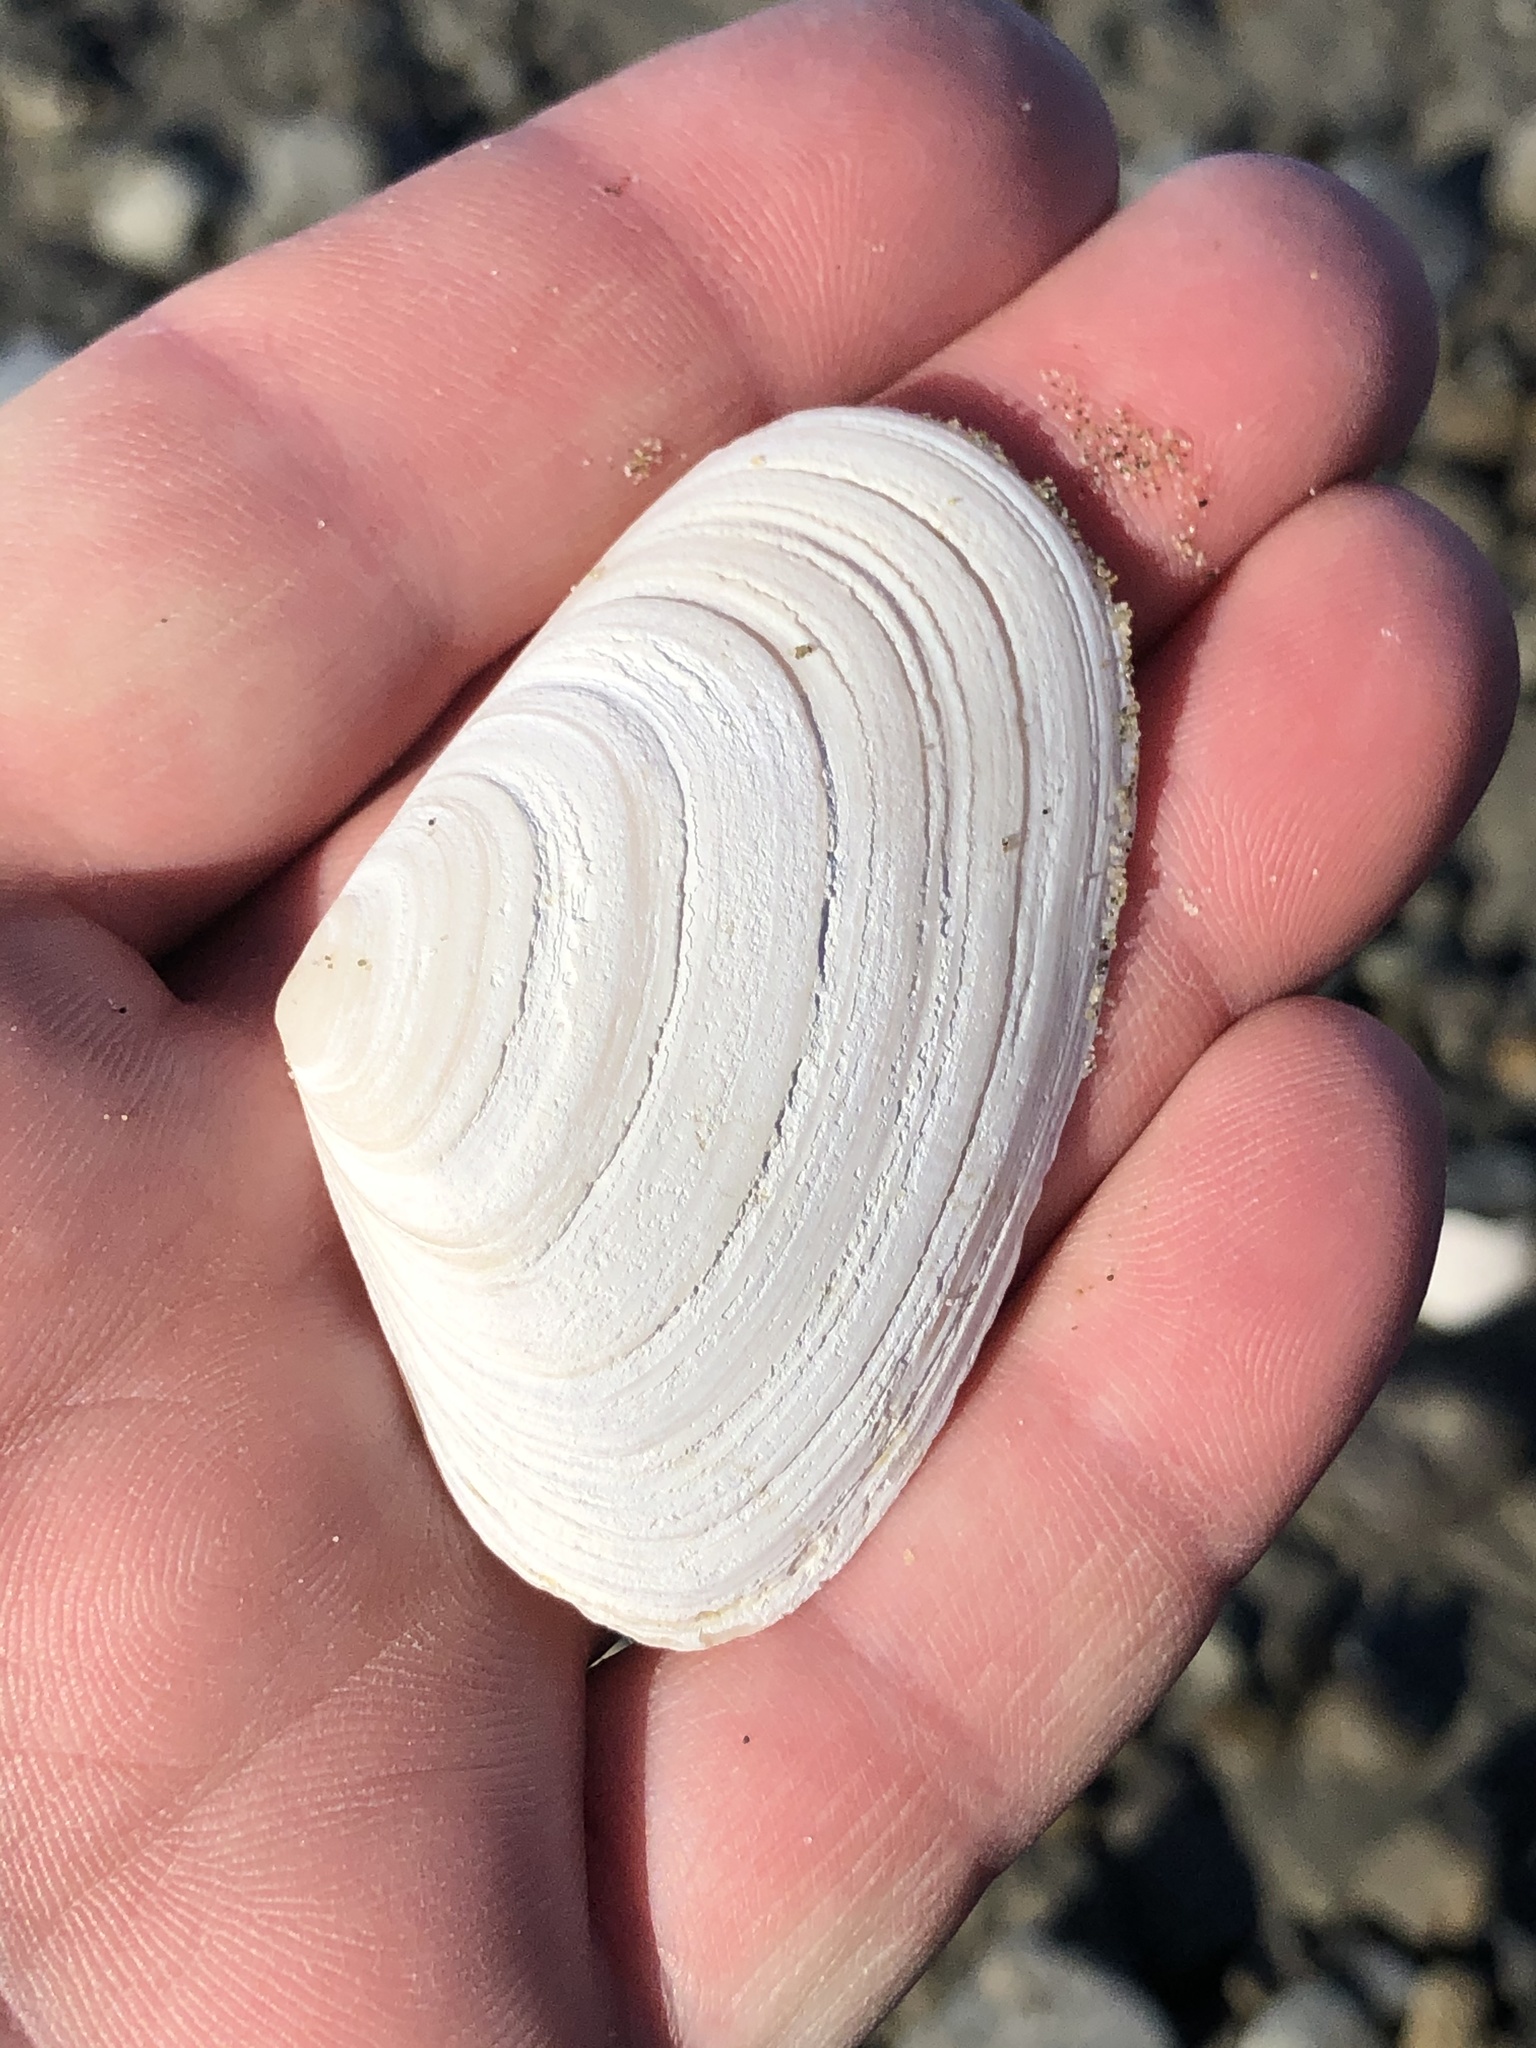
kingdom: Animalia
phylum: Mollusca
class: Bivalvia
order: Venerida
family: Mesodesmatidae
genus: Paphies
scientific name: Paphies subtriangulata
